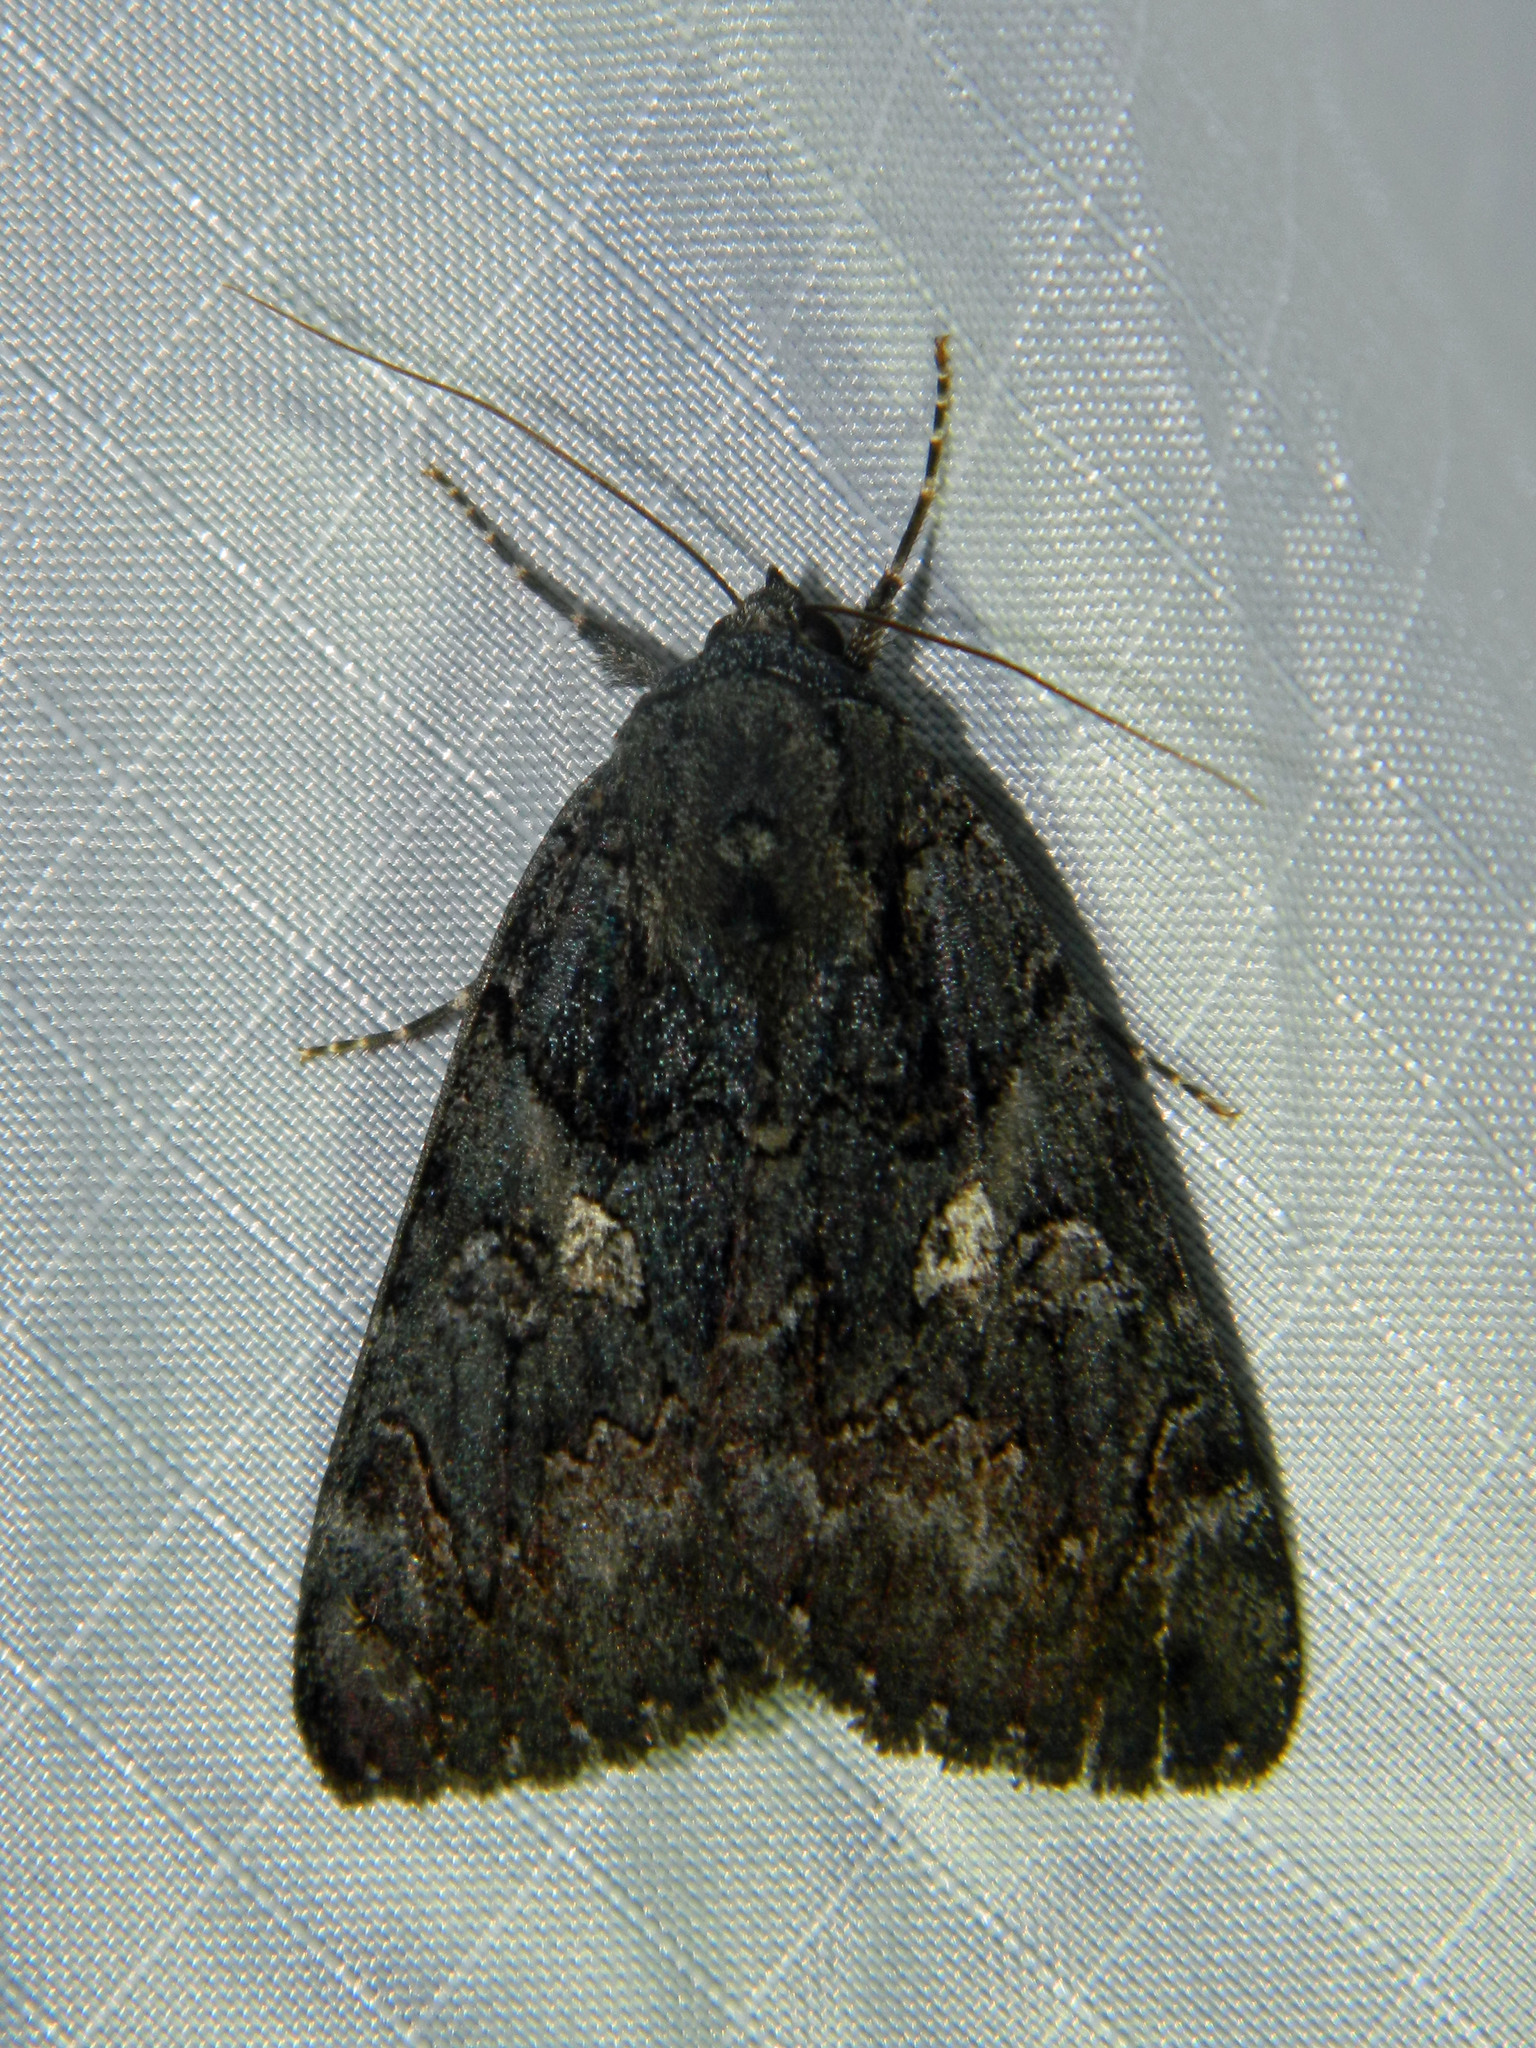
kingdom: Animalia
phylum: Arthropoda
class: Insecta
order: Lepidoptera
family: Erebidae
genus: Catocala
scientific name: Catocala antinympha
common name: Sweetfern underwing
